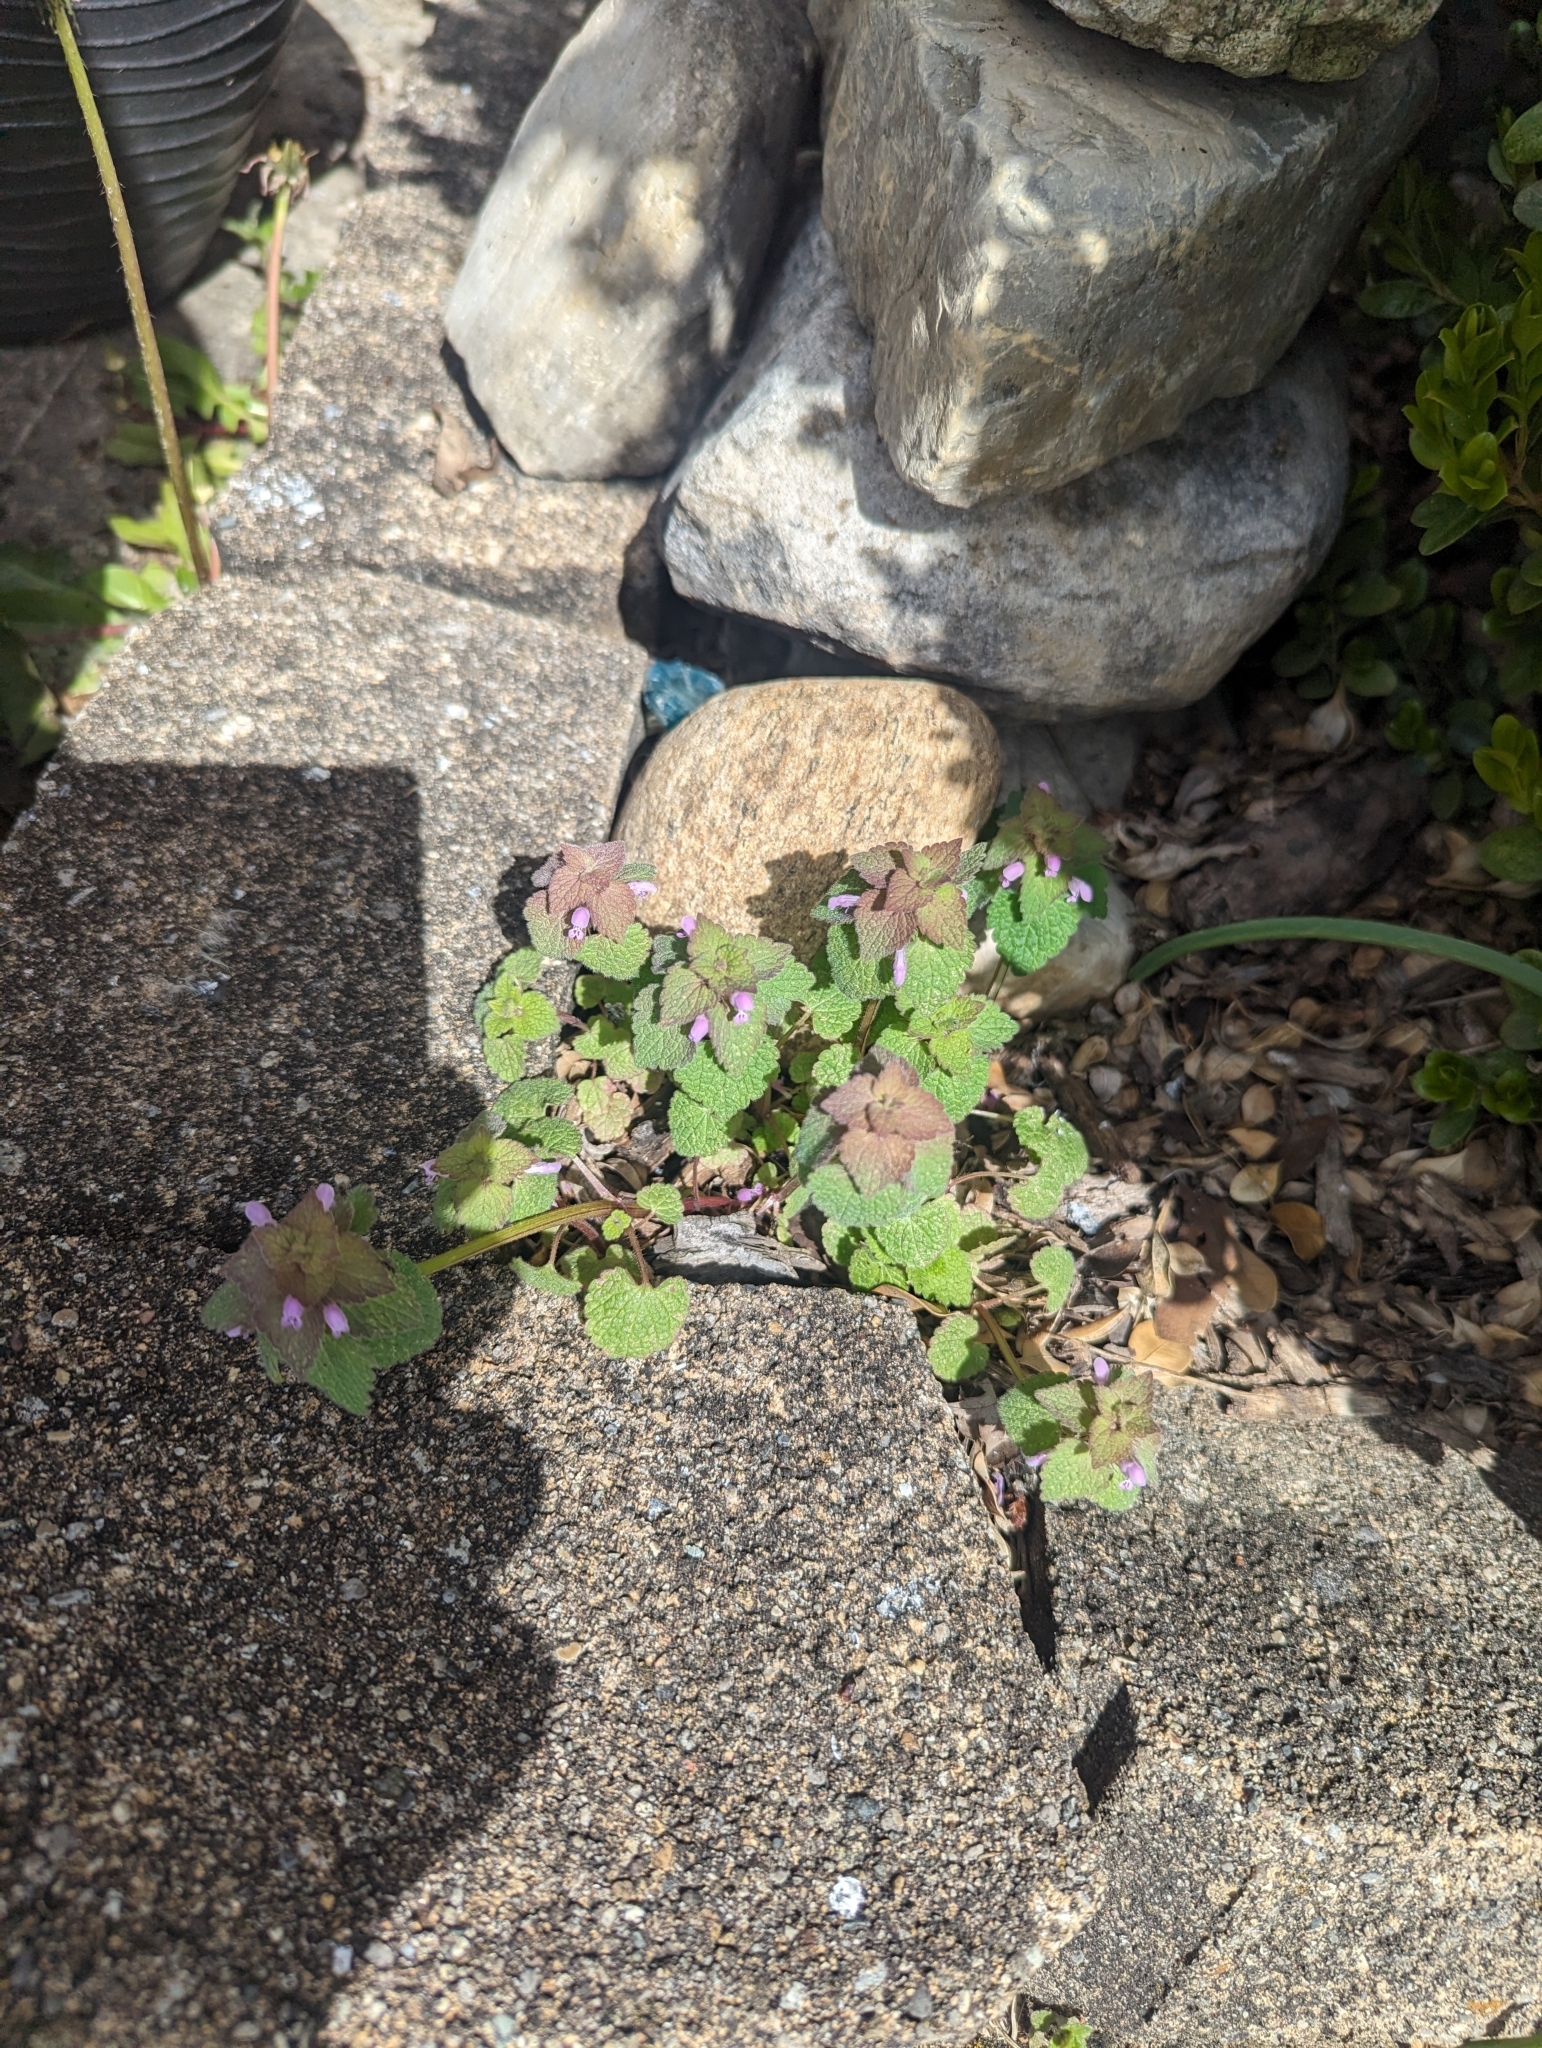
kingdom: Plantae
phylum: Tracheophyta
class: Magnoliopsida
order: Lamiales
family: Lamiaceae
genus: Lamium
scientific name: Lamium purpureum
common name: Red dead-nettle
